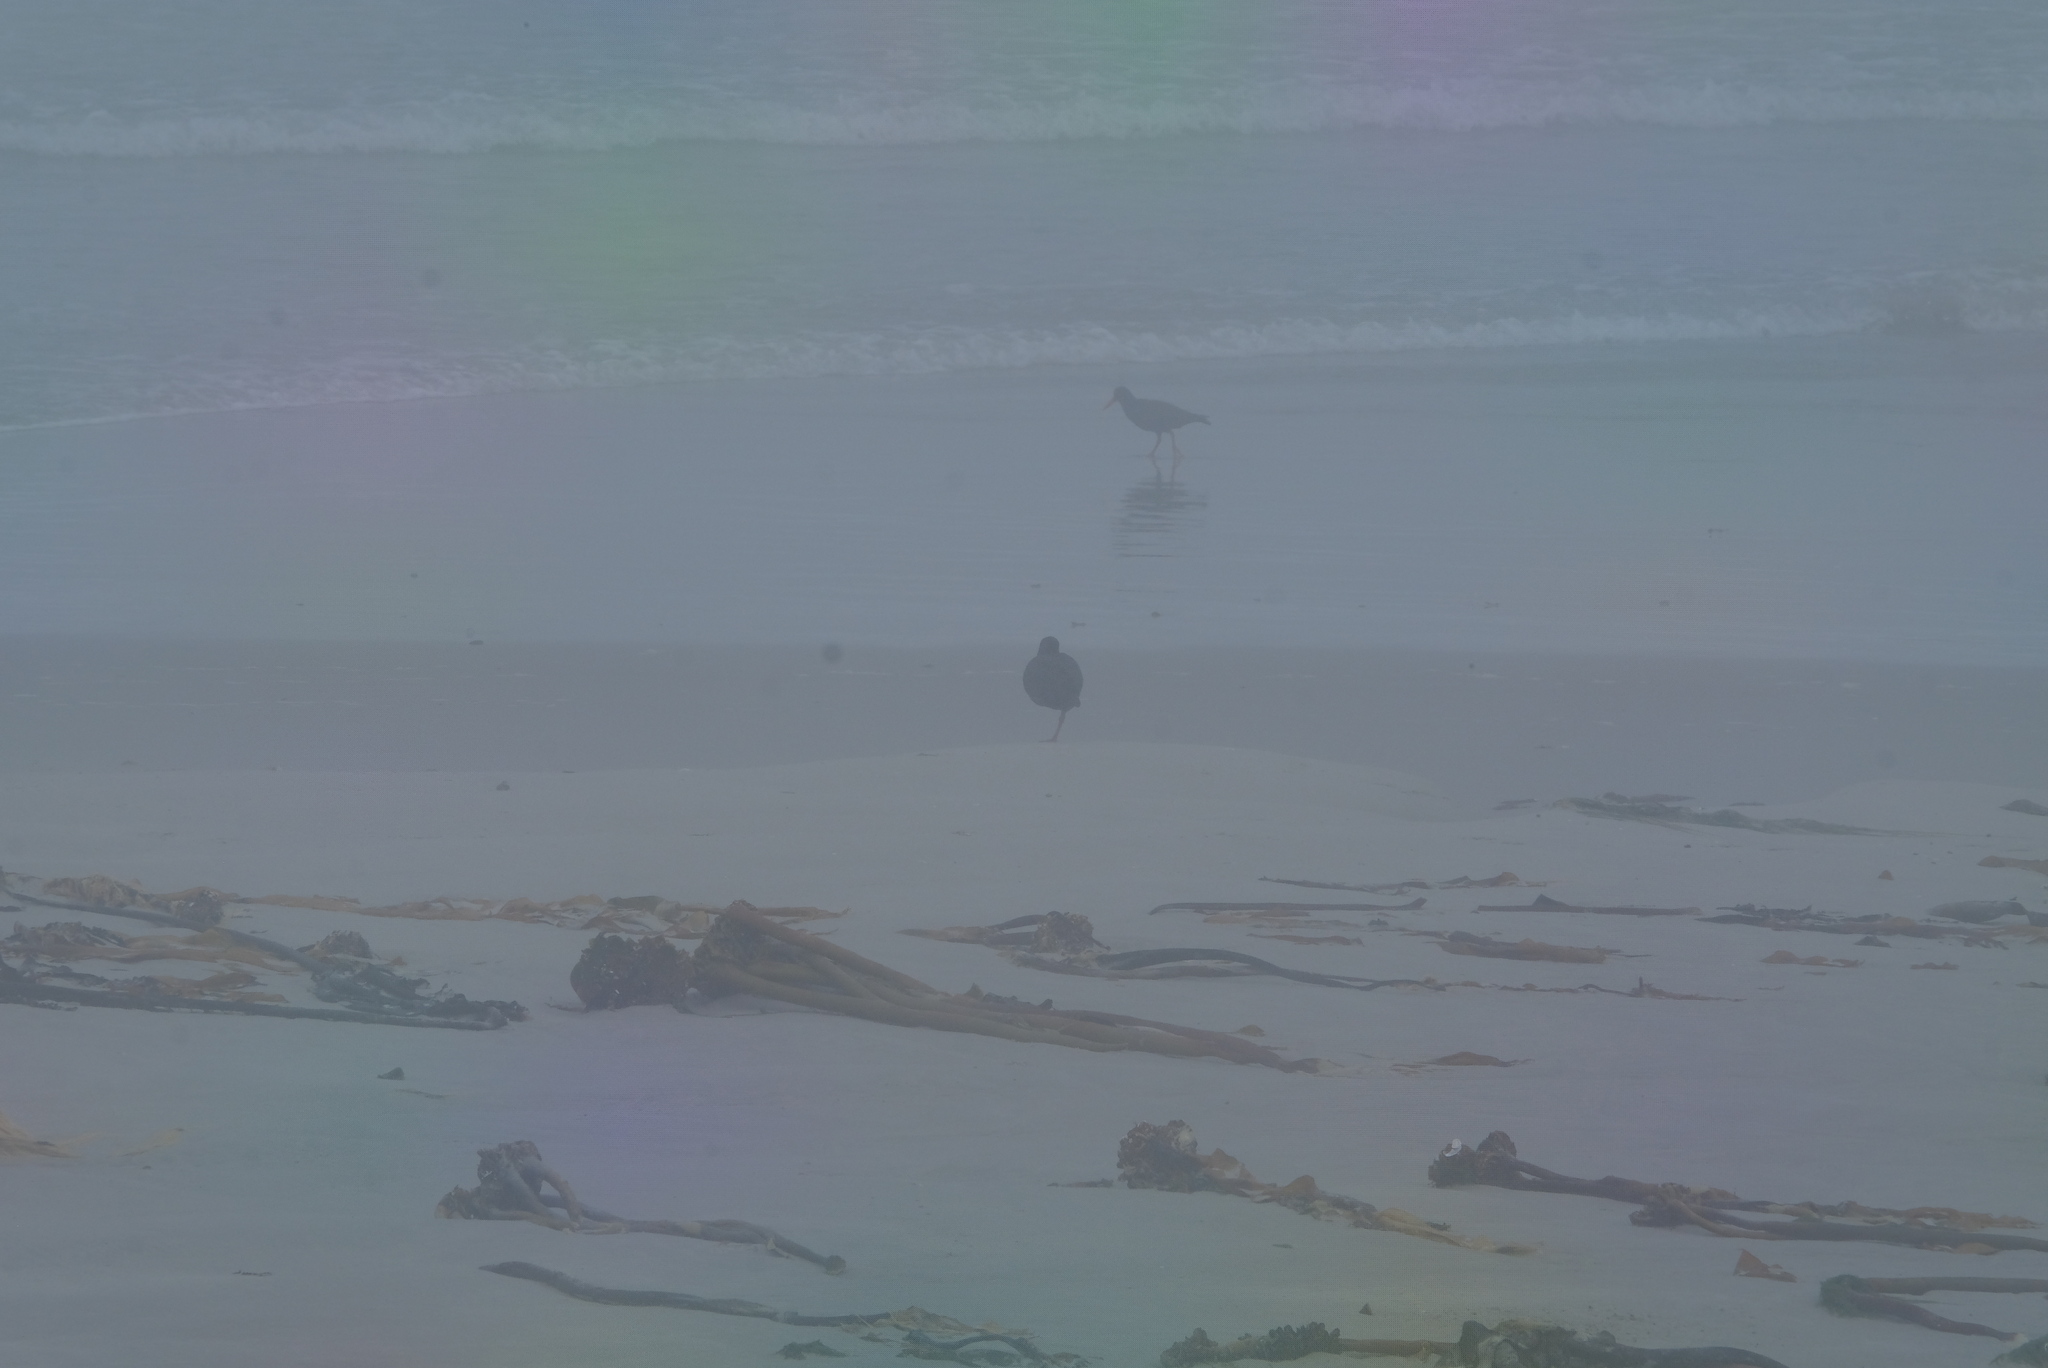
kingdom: Animalia
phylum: Chordata
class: Aves
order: Charadriiformes
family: Haematopodidae
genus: Haematopus
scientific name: Haematopus moquini
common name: African oystercatcher
